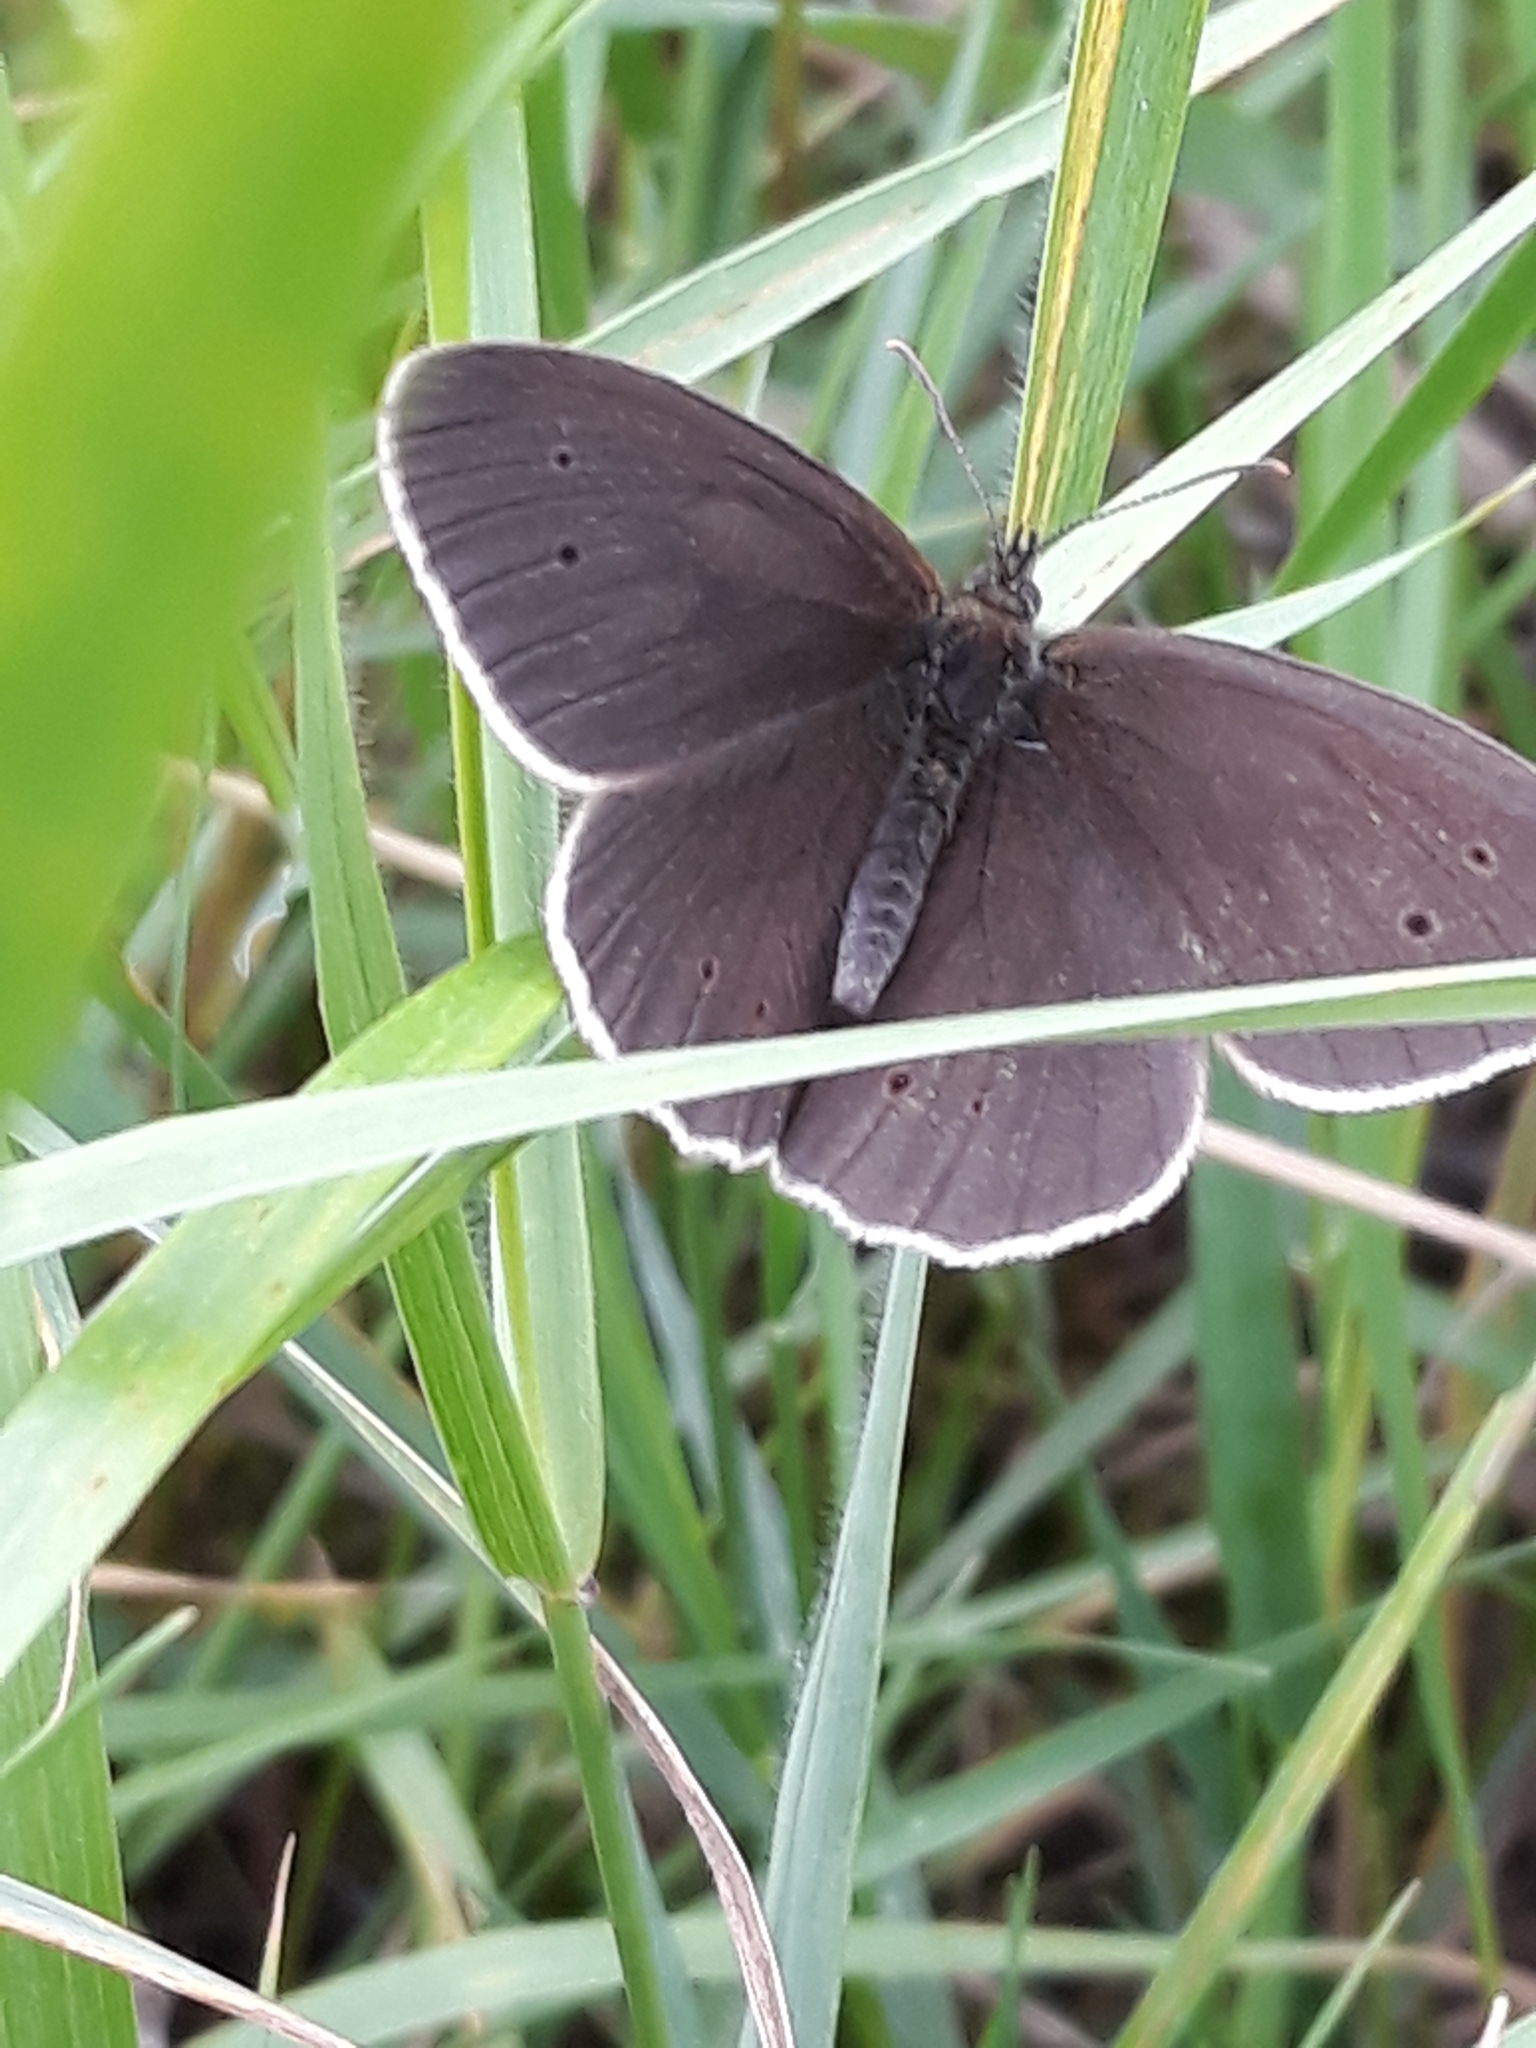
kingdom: Animalia
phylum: Arthropoda
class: Insecta
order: Lepidoptera
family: Nymphalidae
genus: Aphantopus
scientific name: Aphantopus hyperantus
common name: Ringlet
